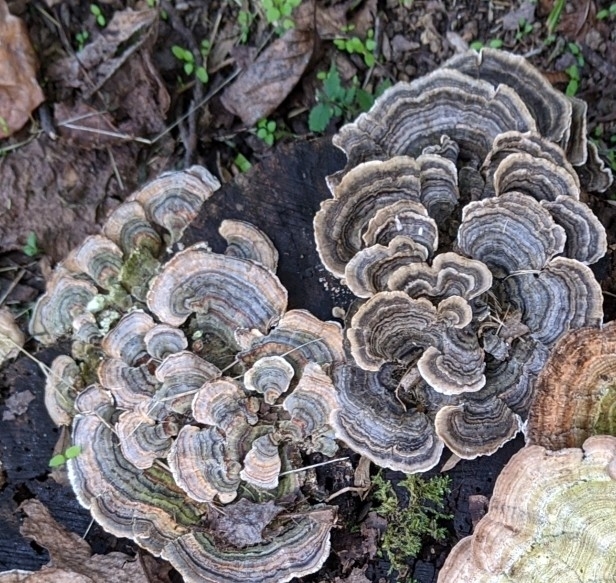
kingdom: Fungi
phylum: Basidiomycota
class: Agaricomycetes
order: Polyporales
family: Polyporaceae
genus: Trametes
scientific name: Trametes versicolor
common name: Turkeytail
